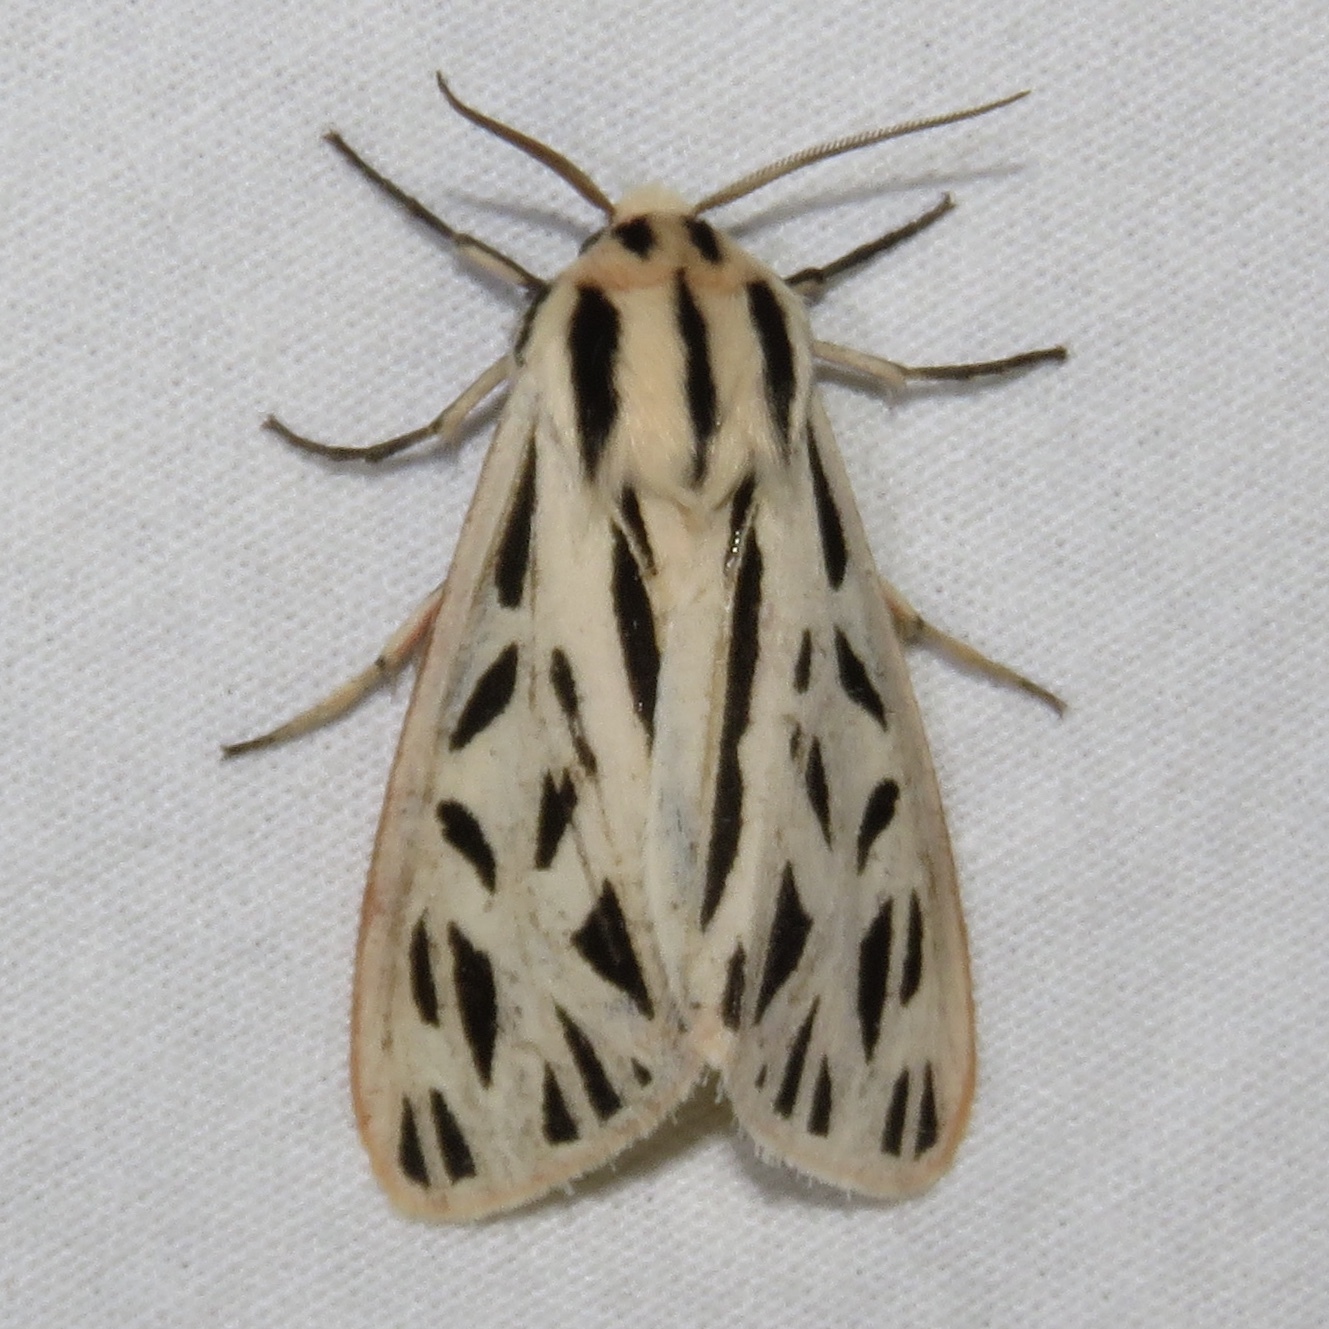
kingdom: Animalia
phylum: Arthropoda
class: Insecta
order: Lepidoptera
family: Erebidae
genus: Apantesis
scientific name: Apantesis arge
